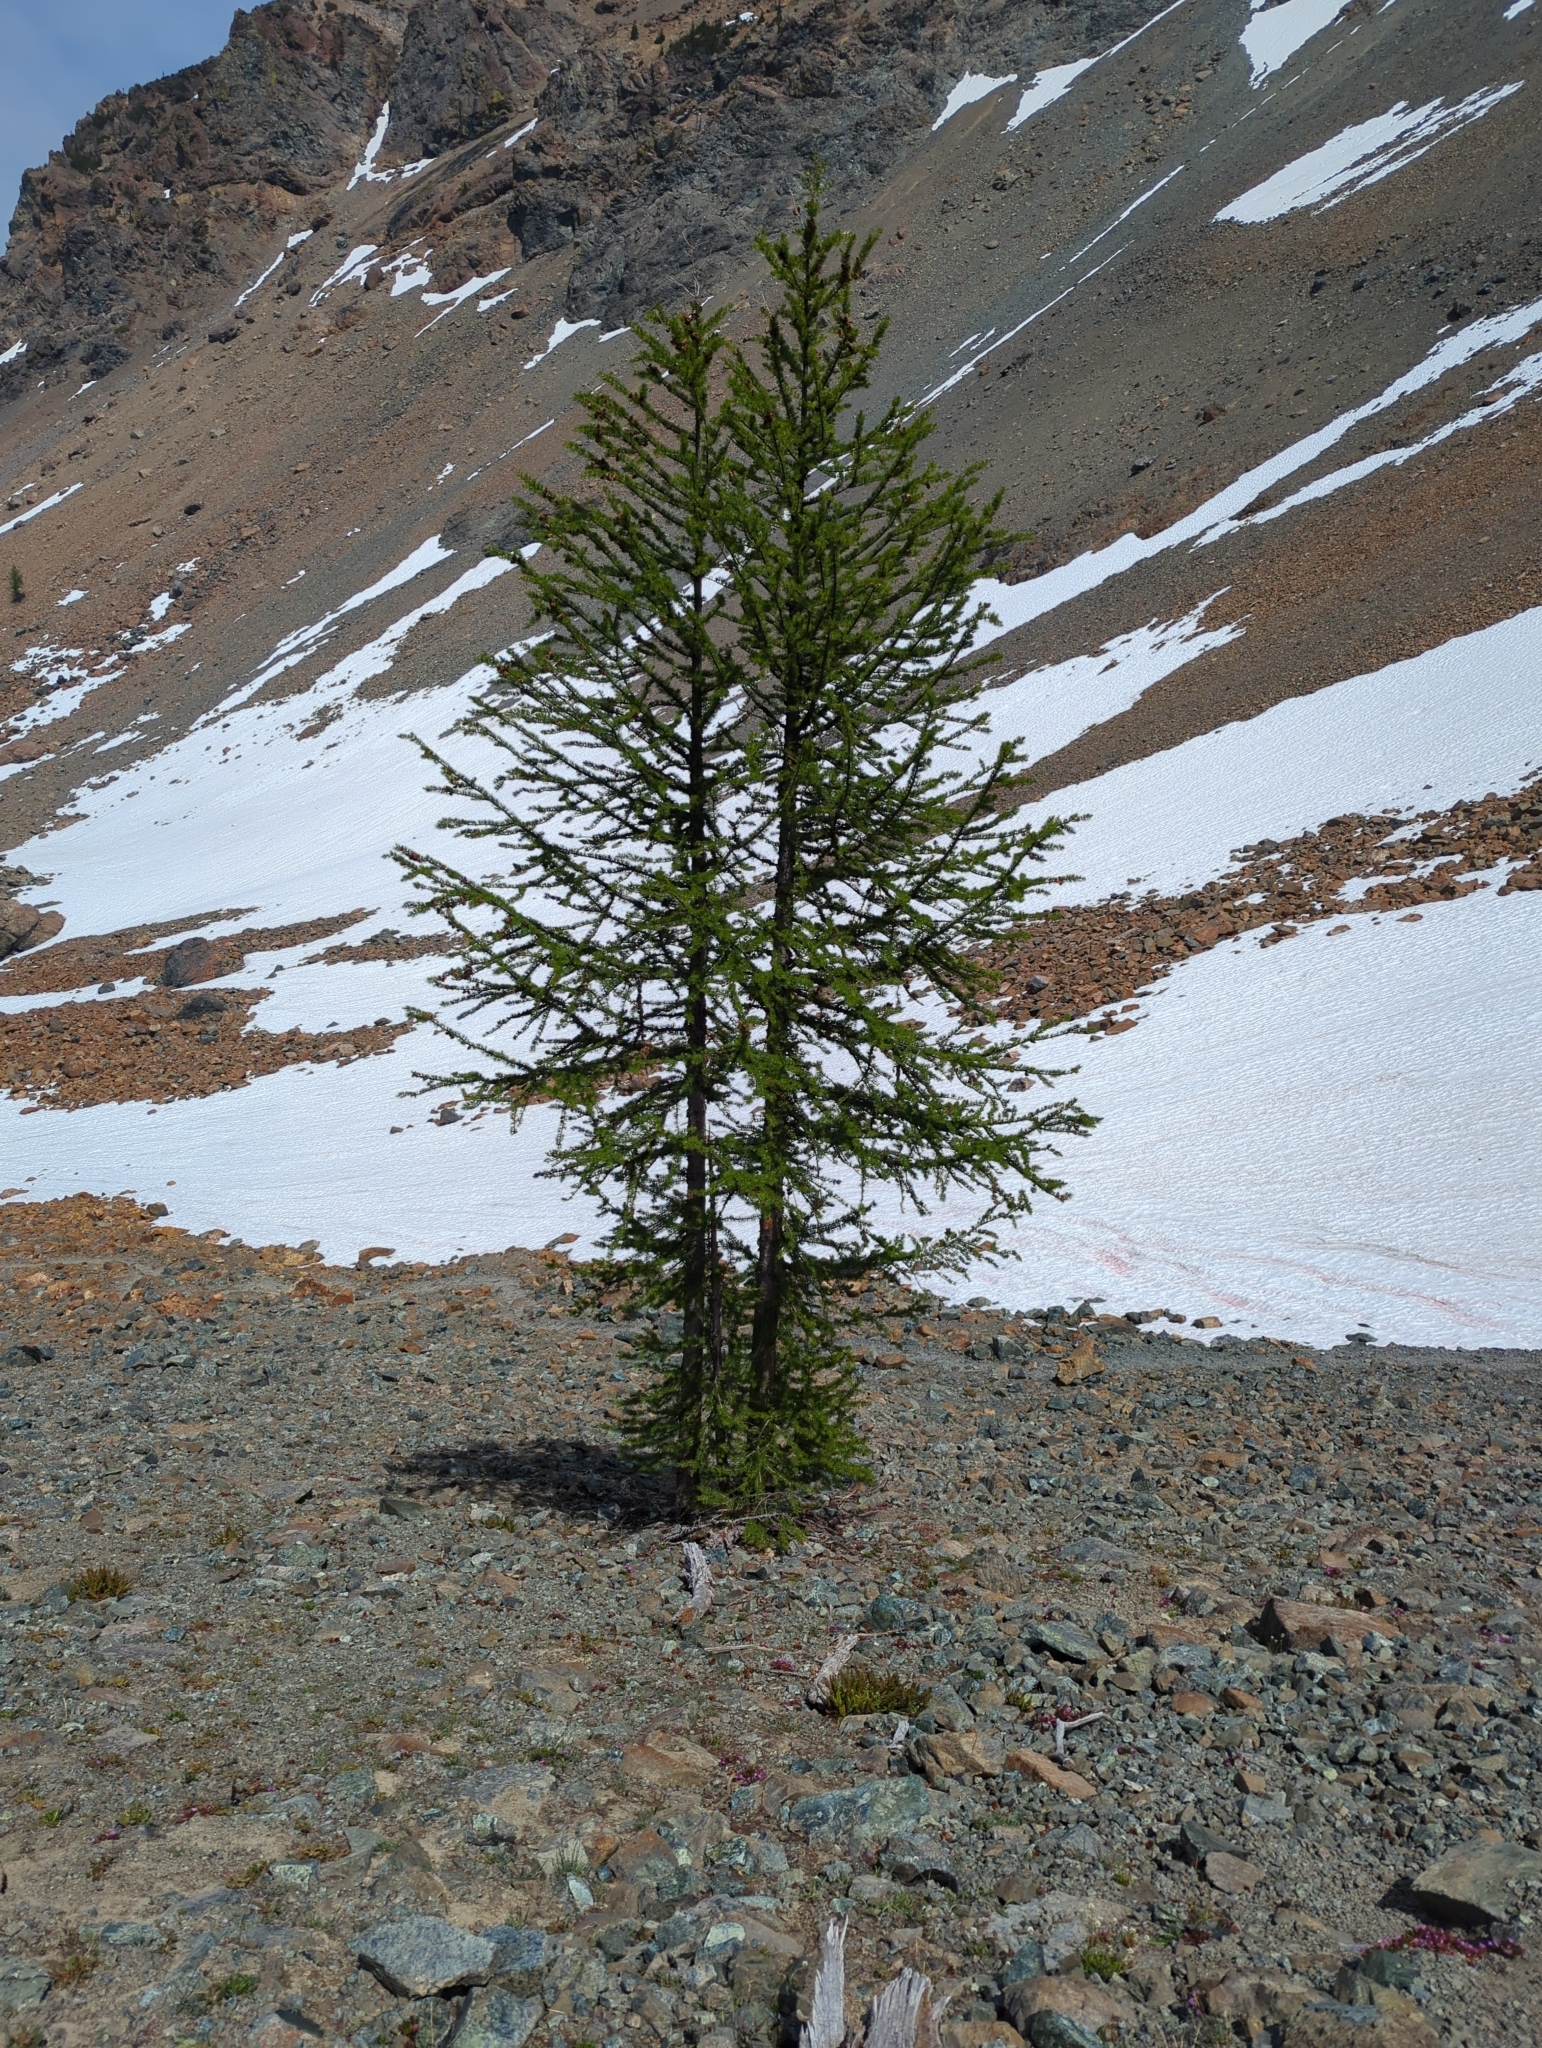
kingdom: Plantae
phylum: Tracheophyta
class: Pinopsida
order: Pinales
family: Pinaceae
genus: Larix
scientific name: Larix lyallii
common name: Alpine larch
